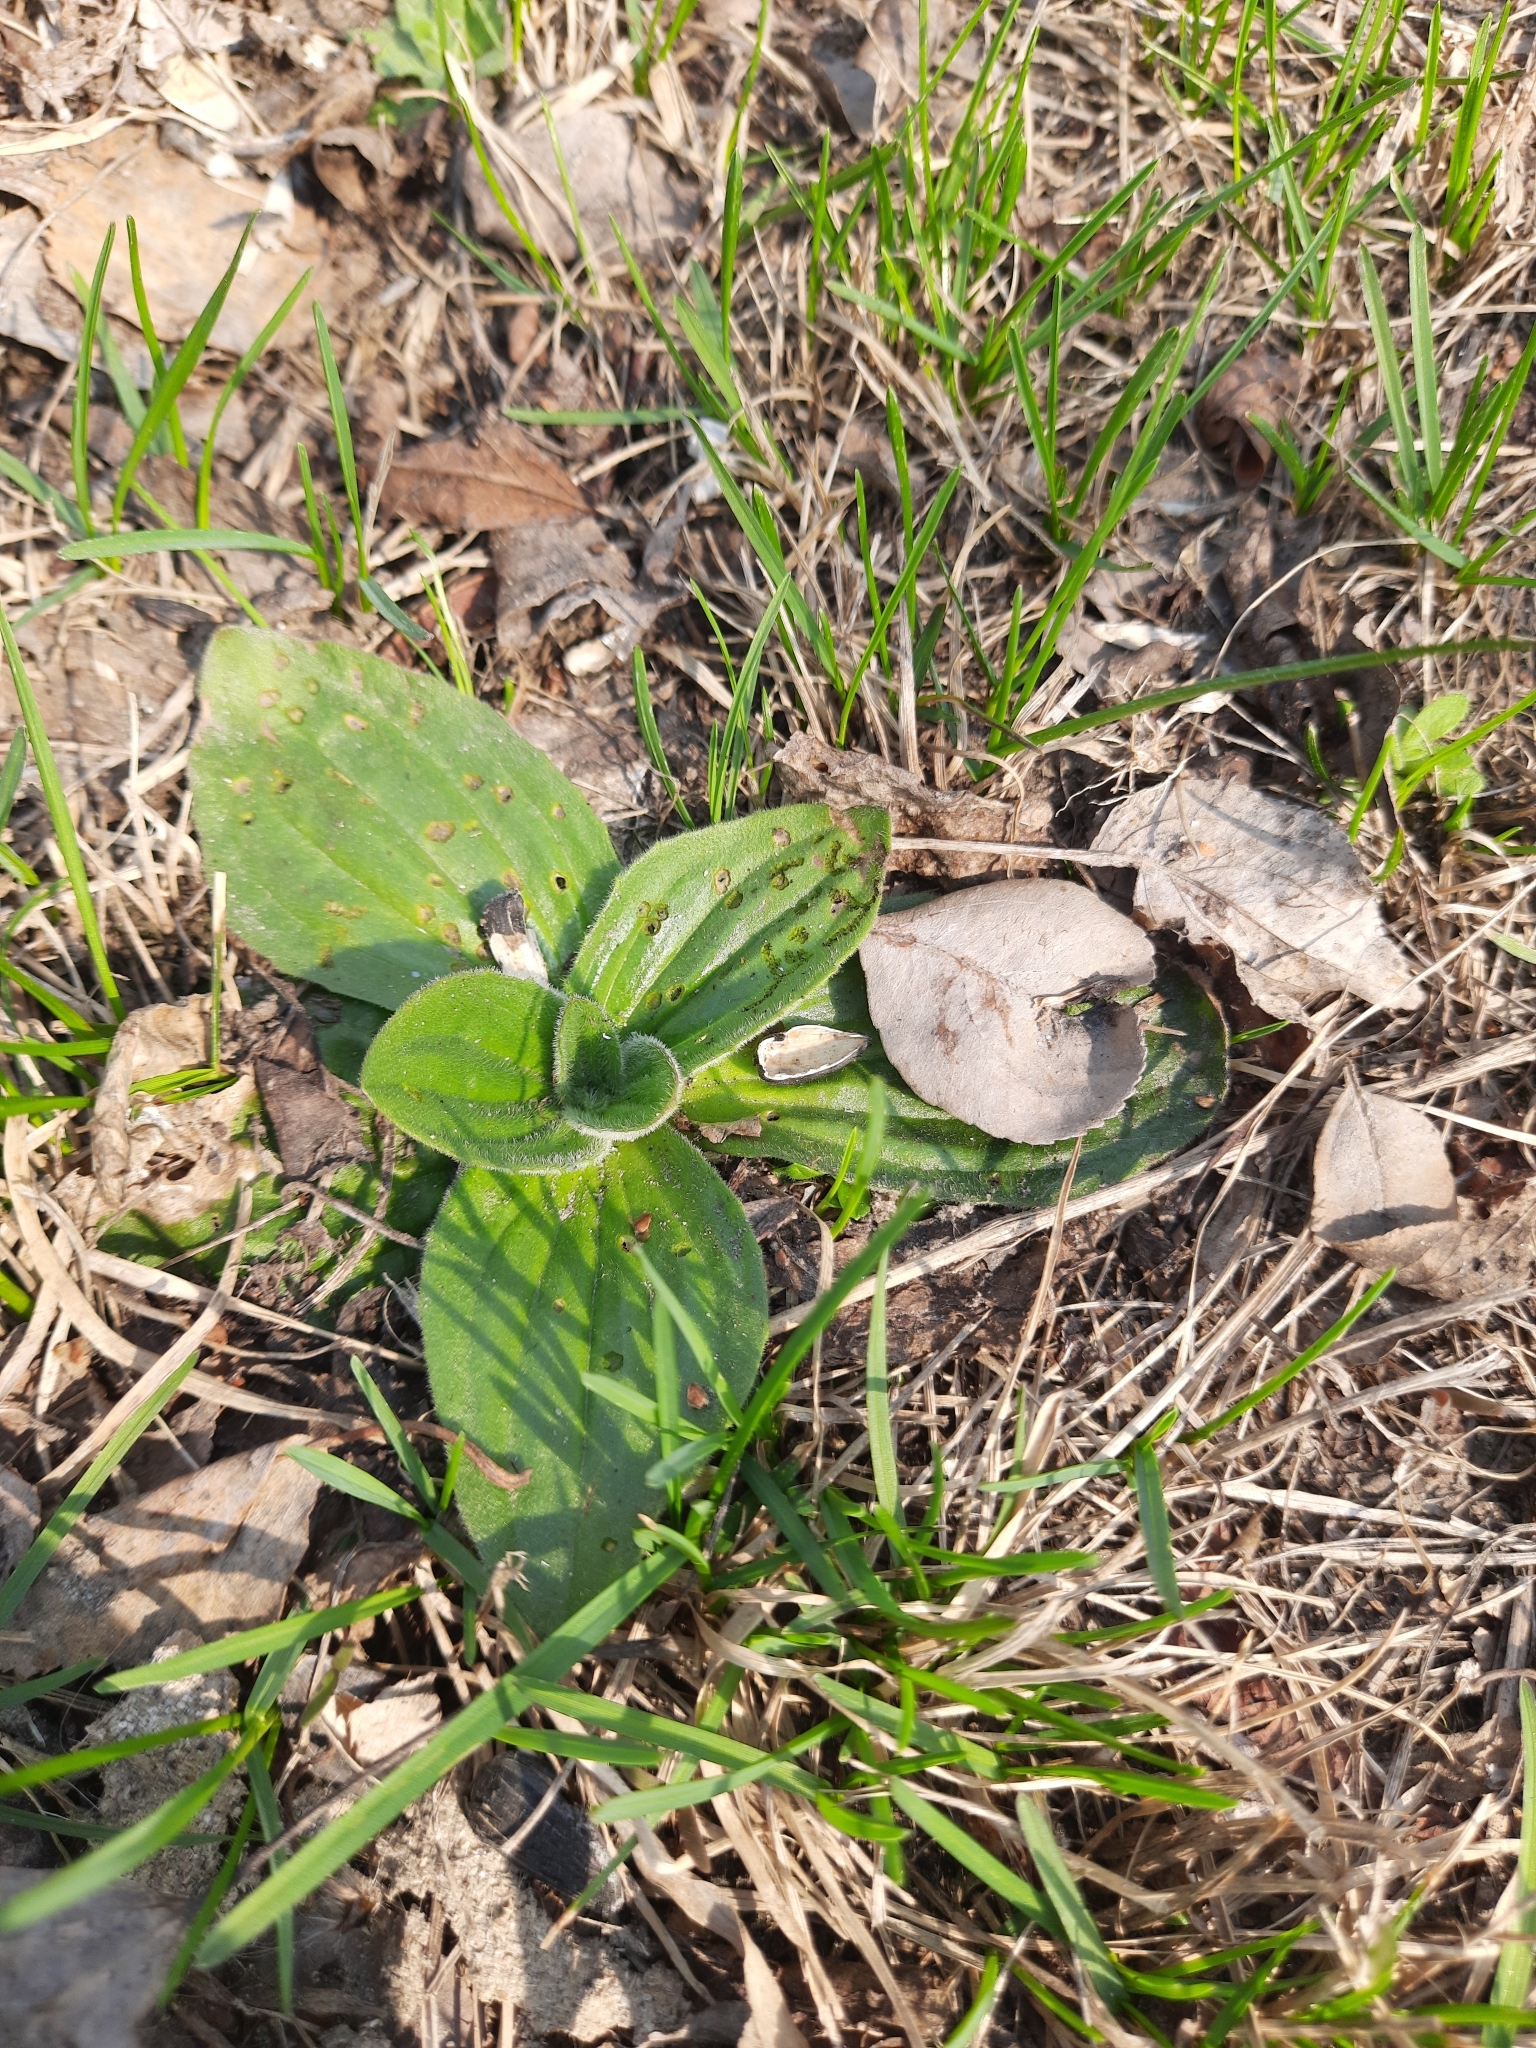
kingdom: Plantae
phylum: Tracheophyta
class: Magnoliopsida
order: Lamiales
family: Plantaginaceae
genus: Plantago
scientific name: Plantago media
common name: Hoary plantain
